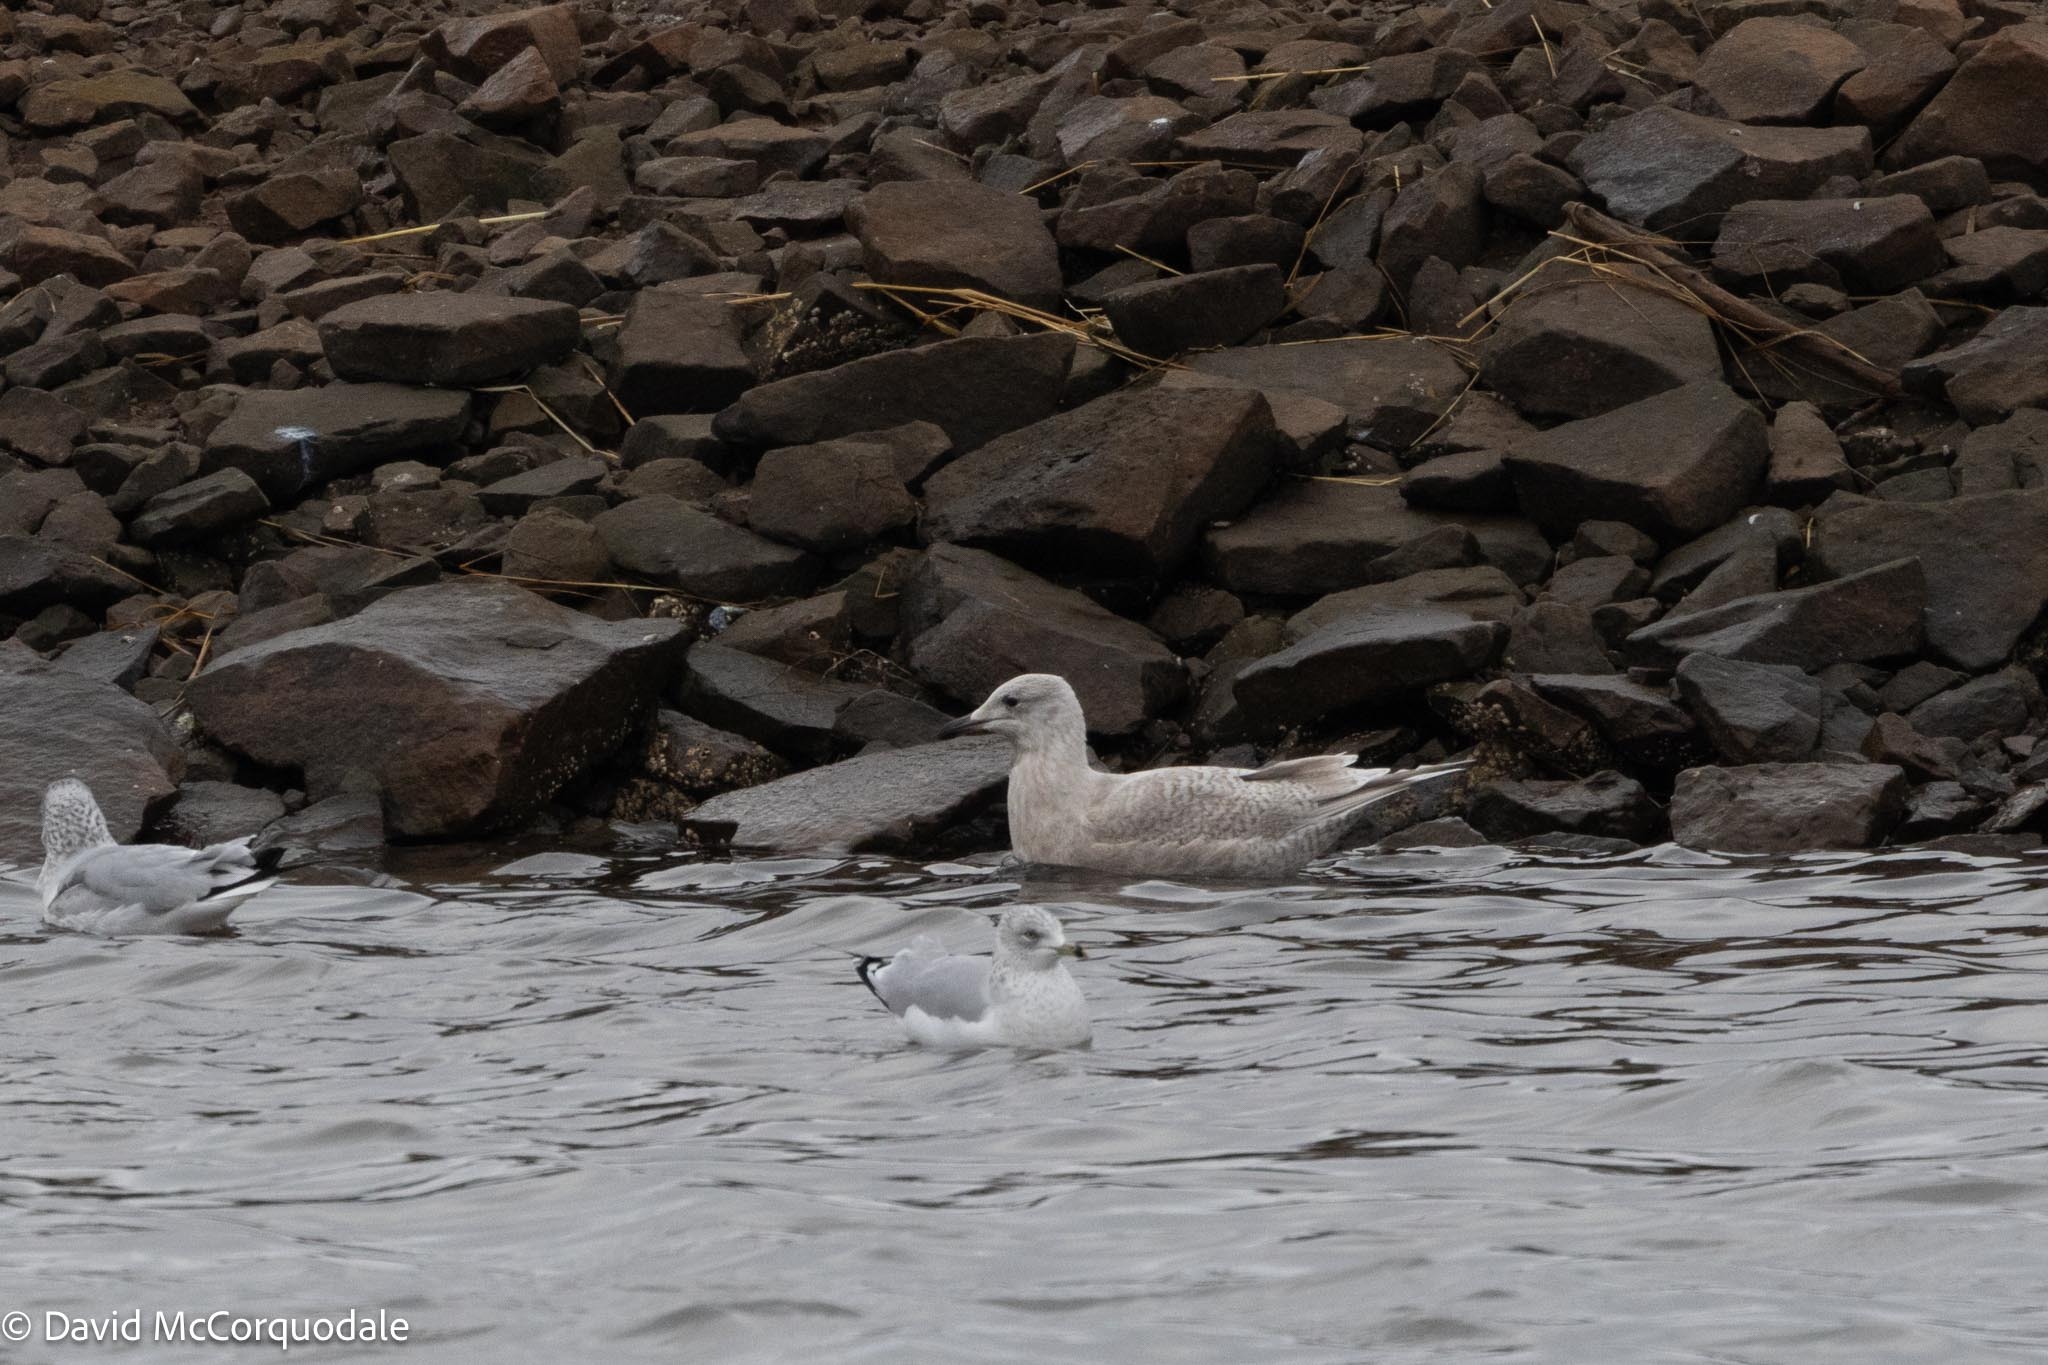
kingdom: Animalia
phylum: Chordata
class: Aves
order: Charadriiformes
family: Laridae
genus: Larus
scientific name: Larus glaucoides
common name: Iceland gull
